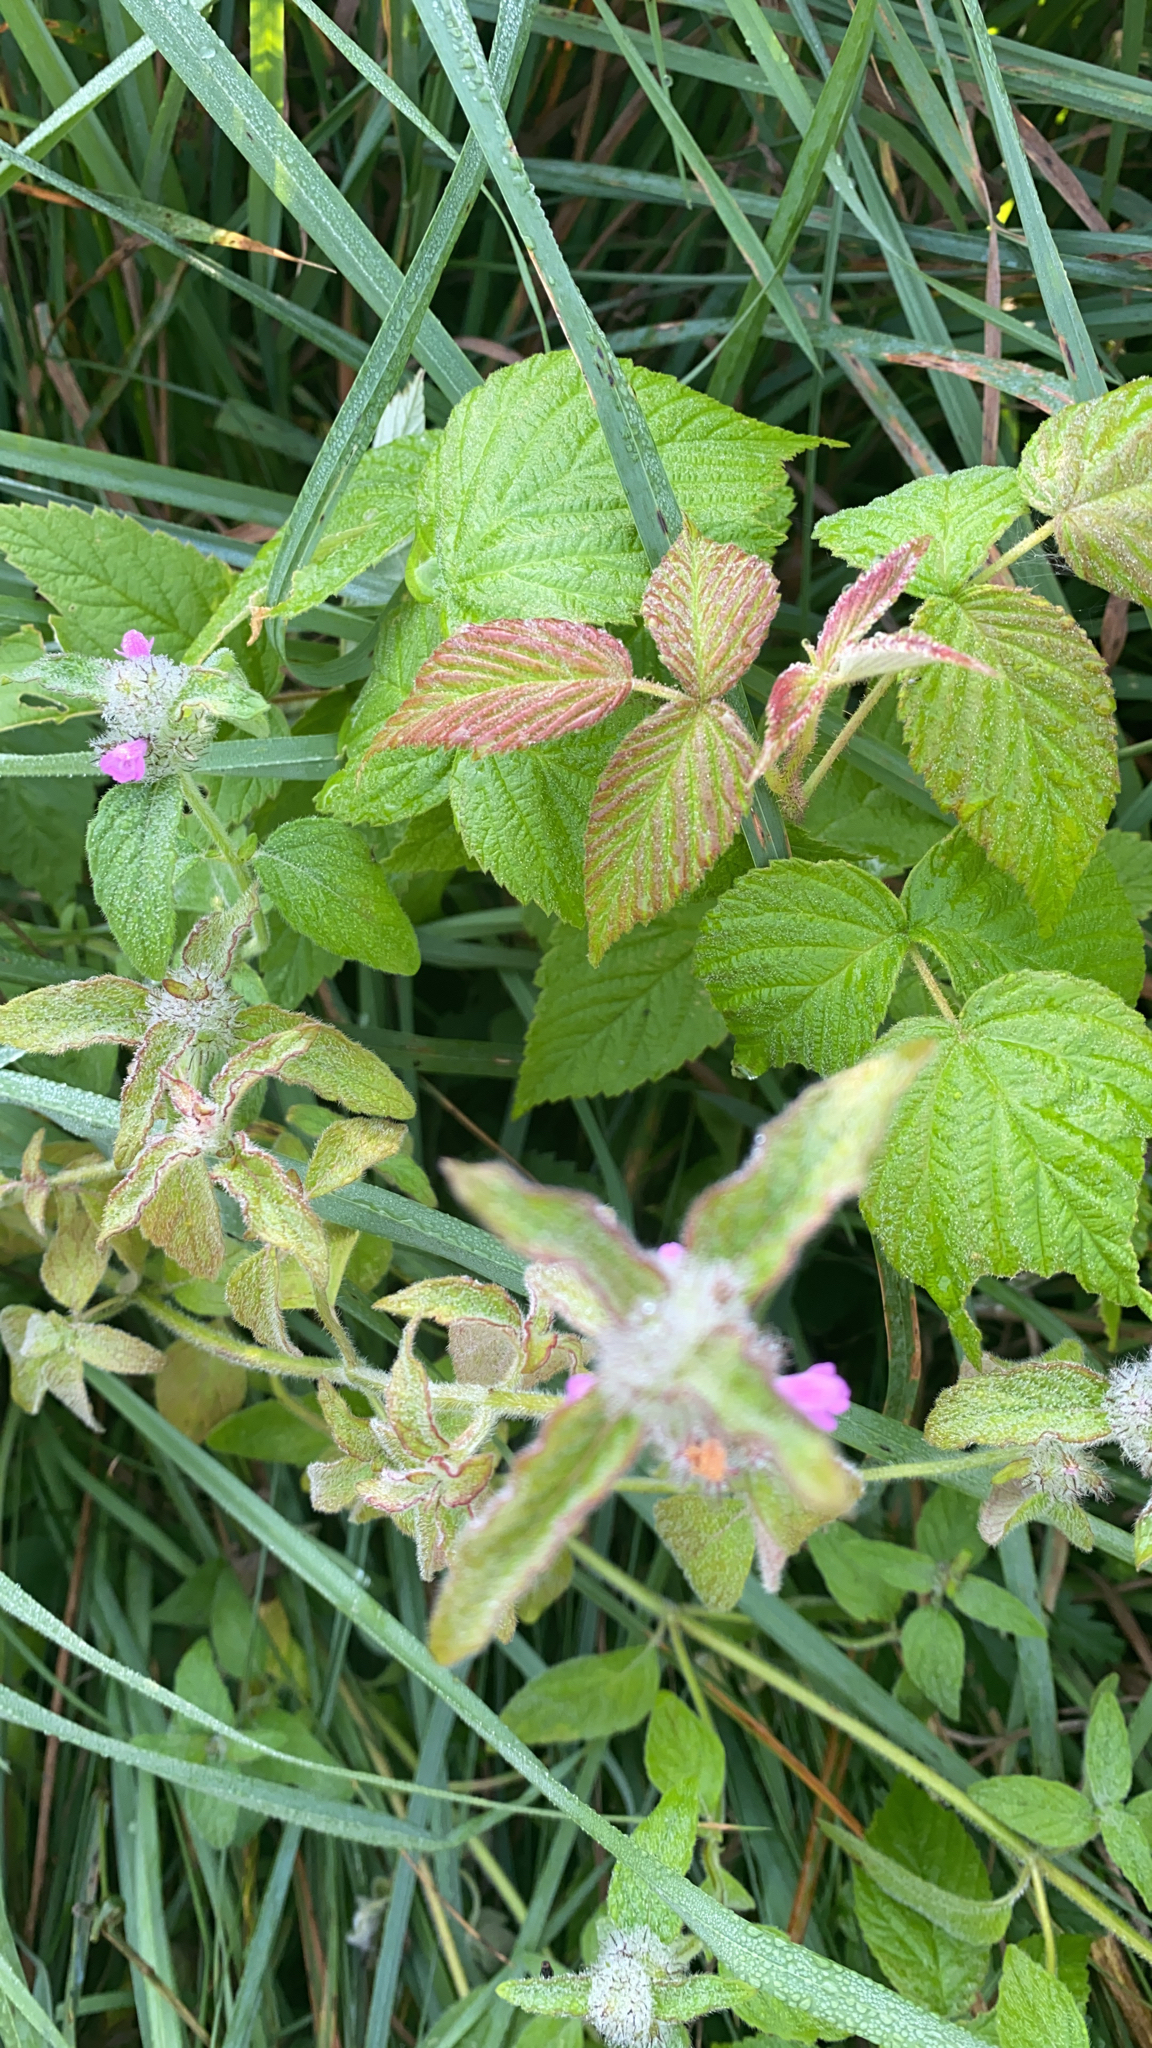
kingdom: Plantae
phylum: Tracheophyta
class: Magnoliopsida
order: Lamiales
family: Lamiaceae
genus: Clinopodium
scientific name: Clinopodium vulgare
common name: Wild basil
